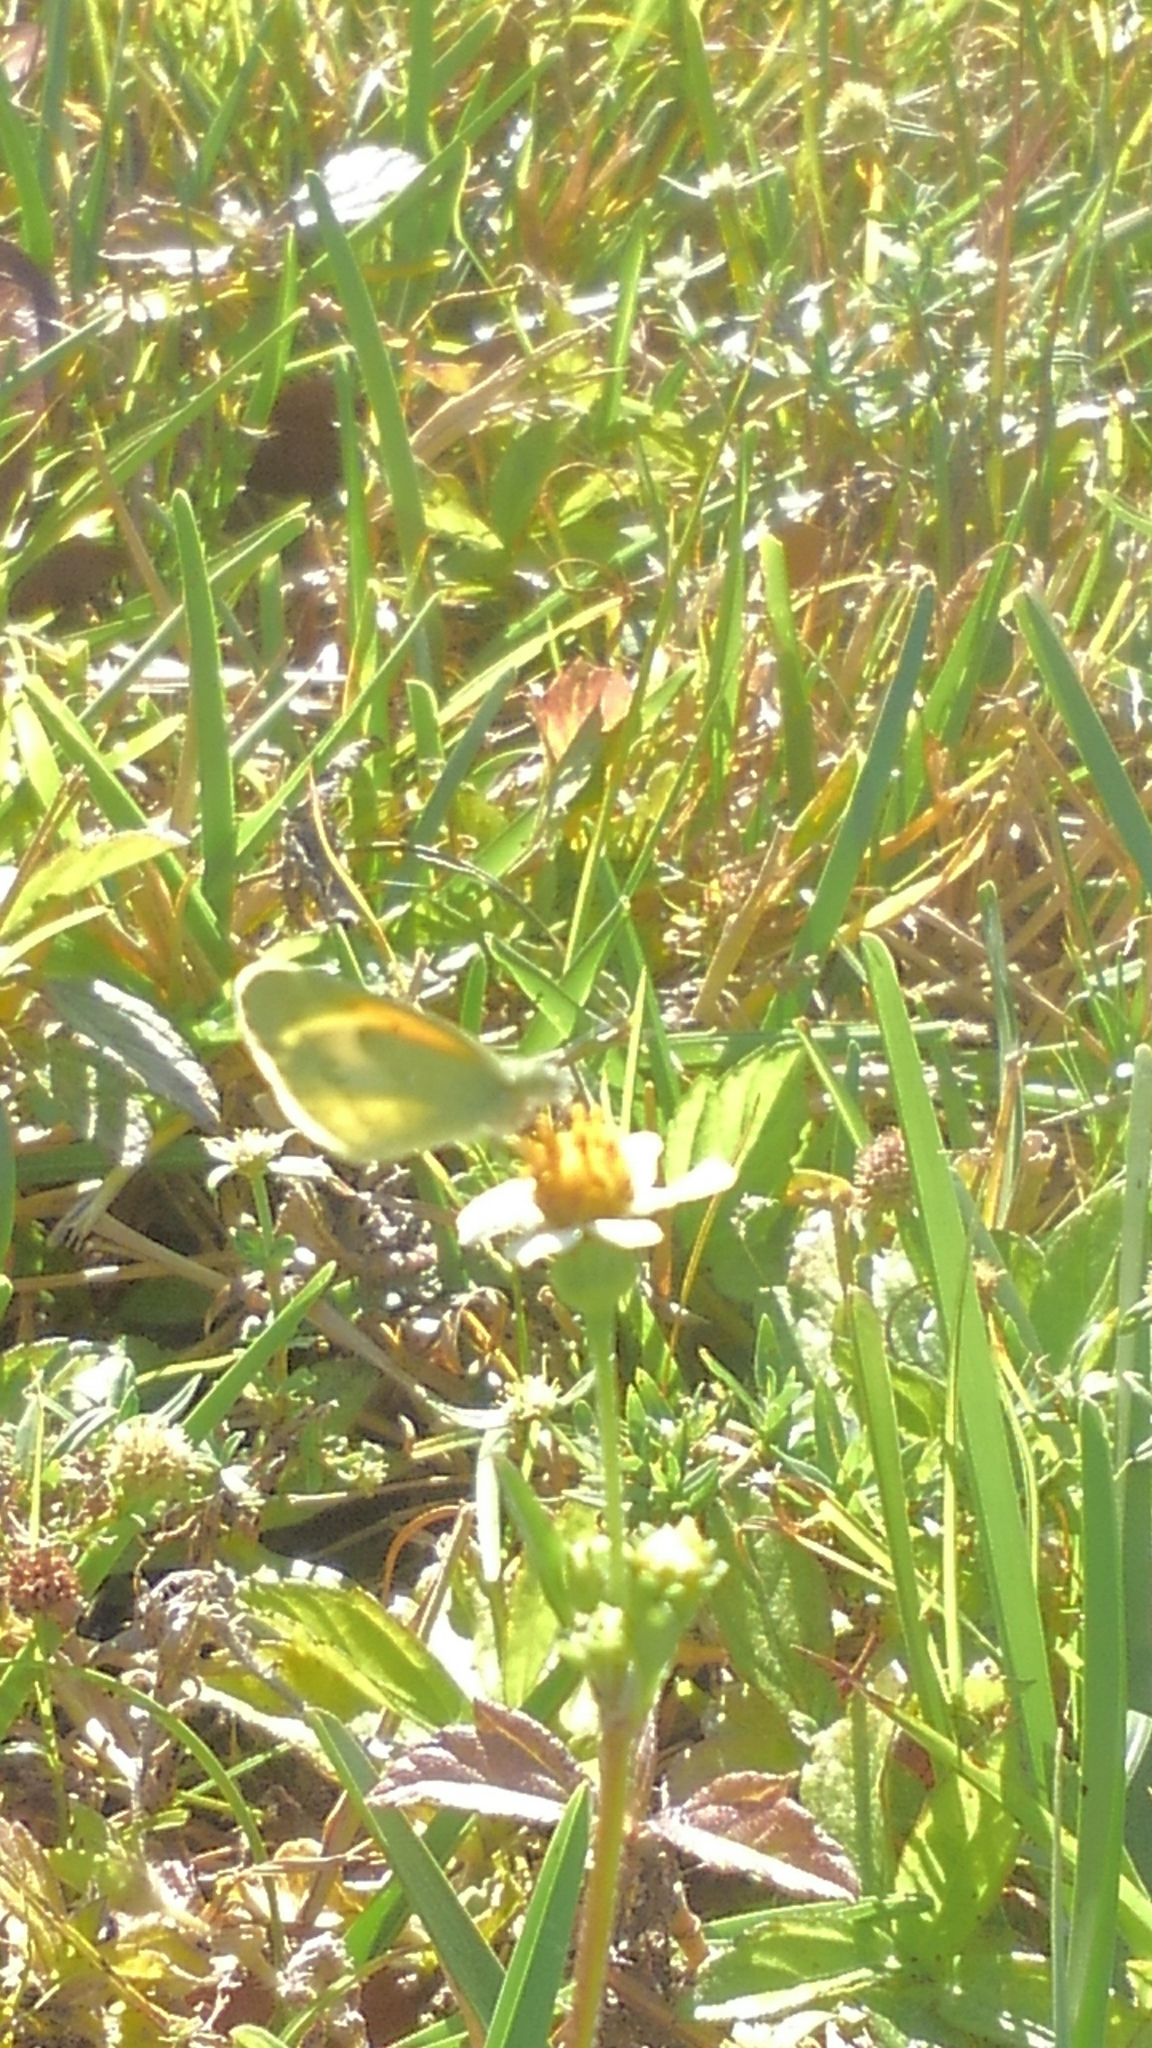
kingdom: Animalia
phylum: Arthropoda
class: Insecta
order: Lepidoptera
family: Pieridae
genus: Nathalis
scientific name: Nathalis iole
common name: Dainty sulphur
